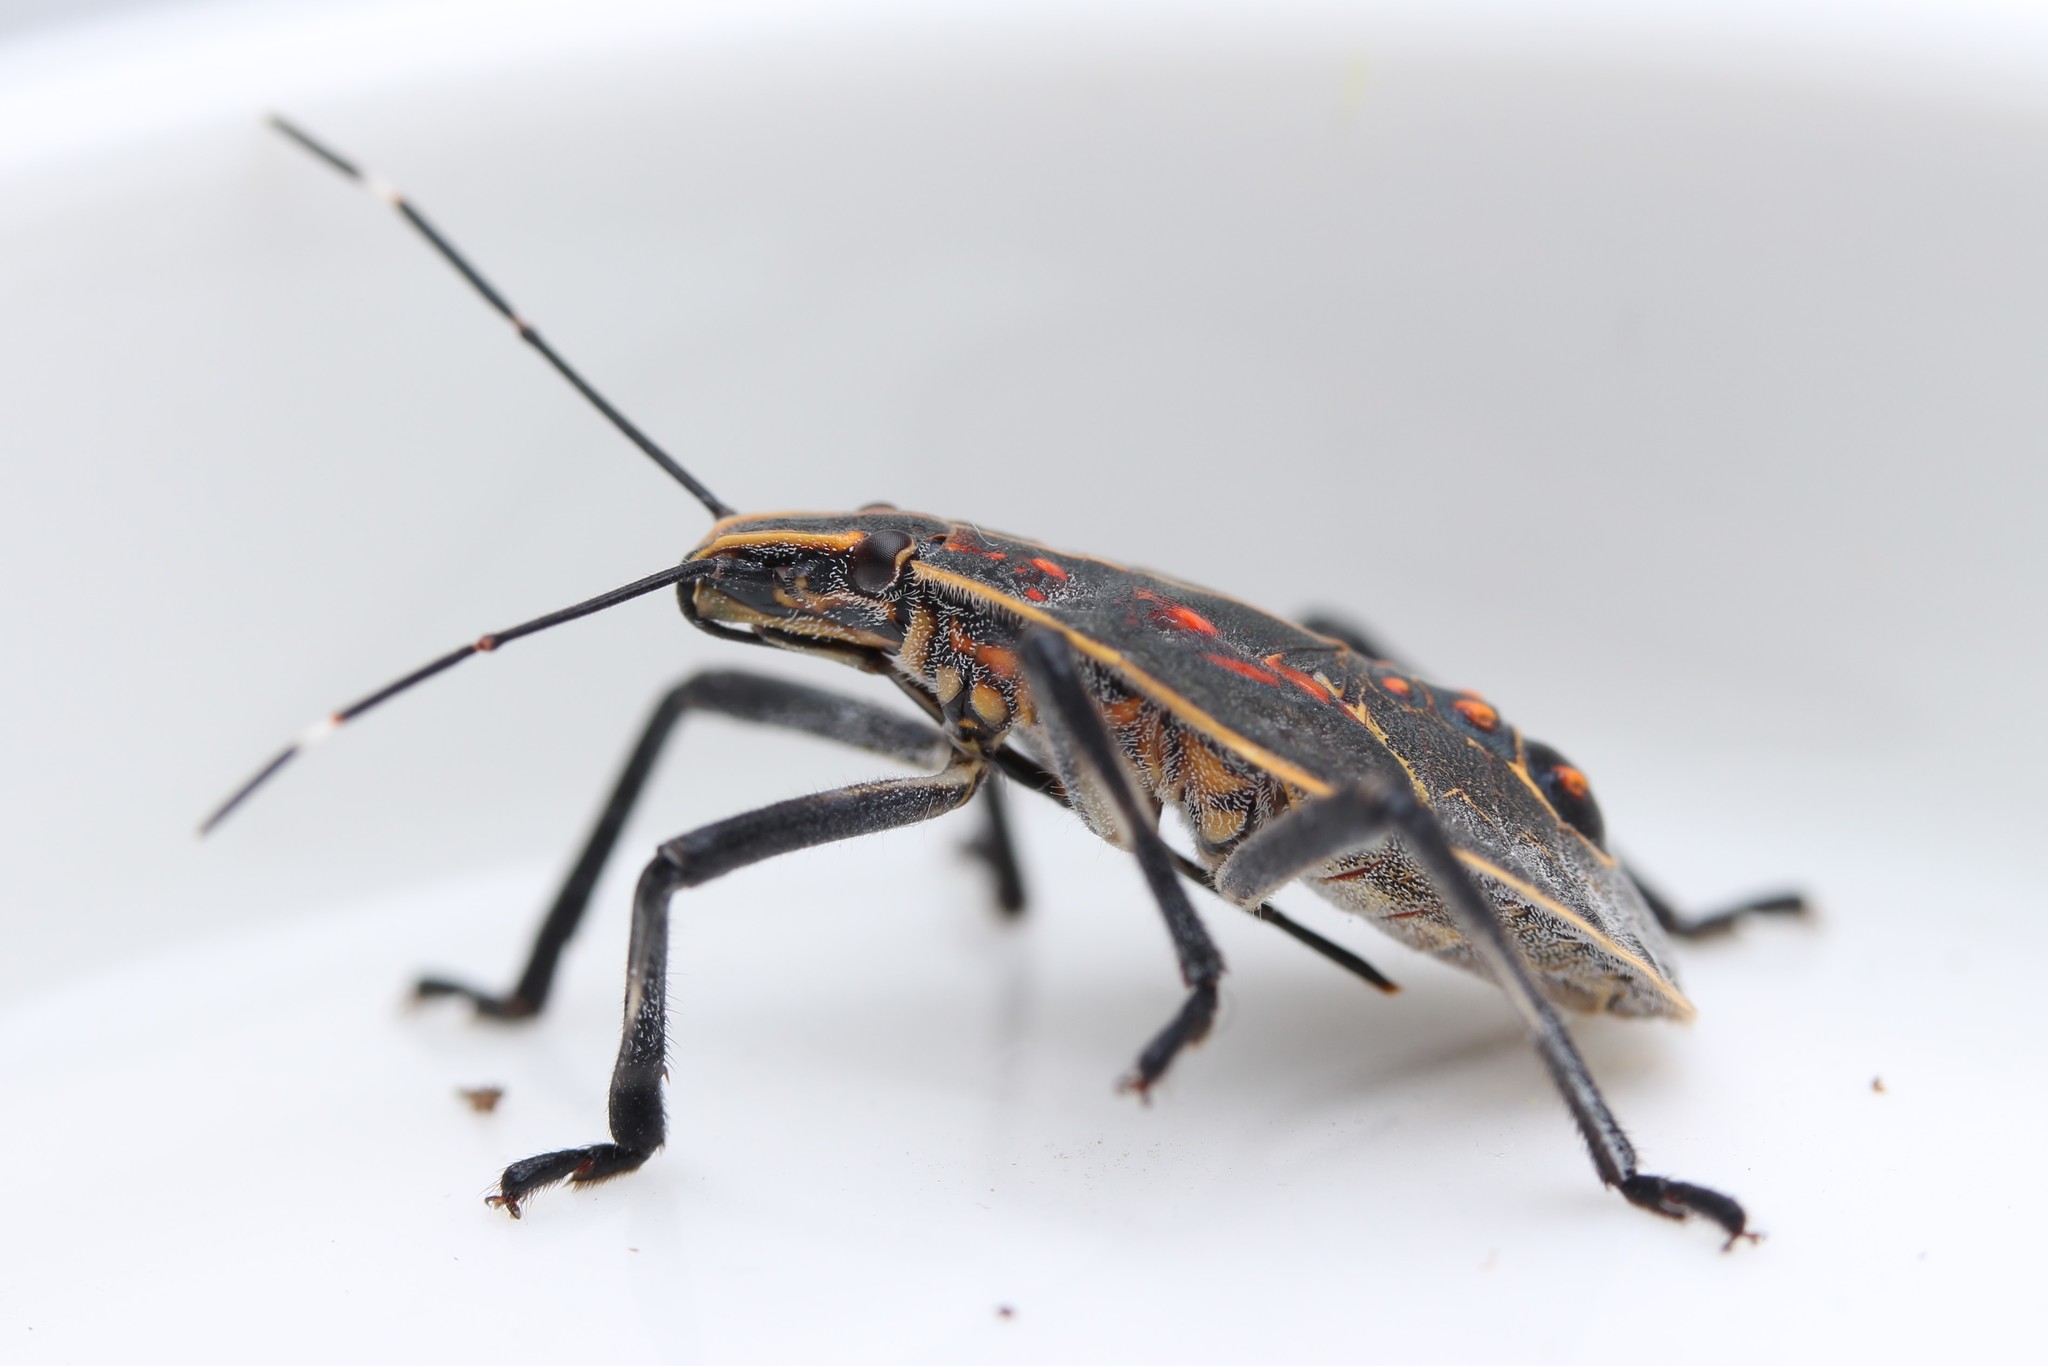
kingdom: Animalia
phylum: Arthropoda
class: Insecta
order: Hemiptera
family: Pentatomidae
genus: Erthesina
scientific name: Erthesina fullo
